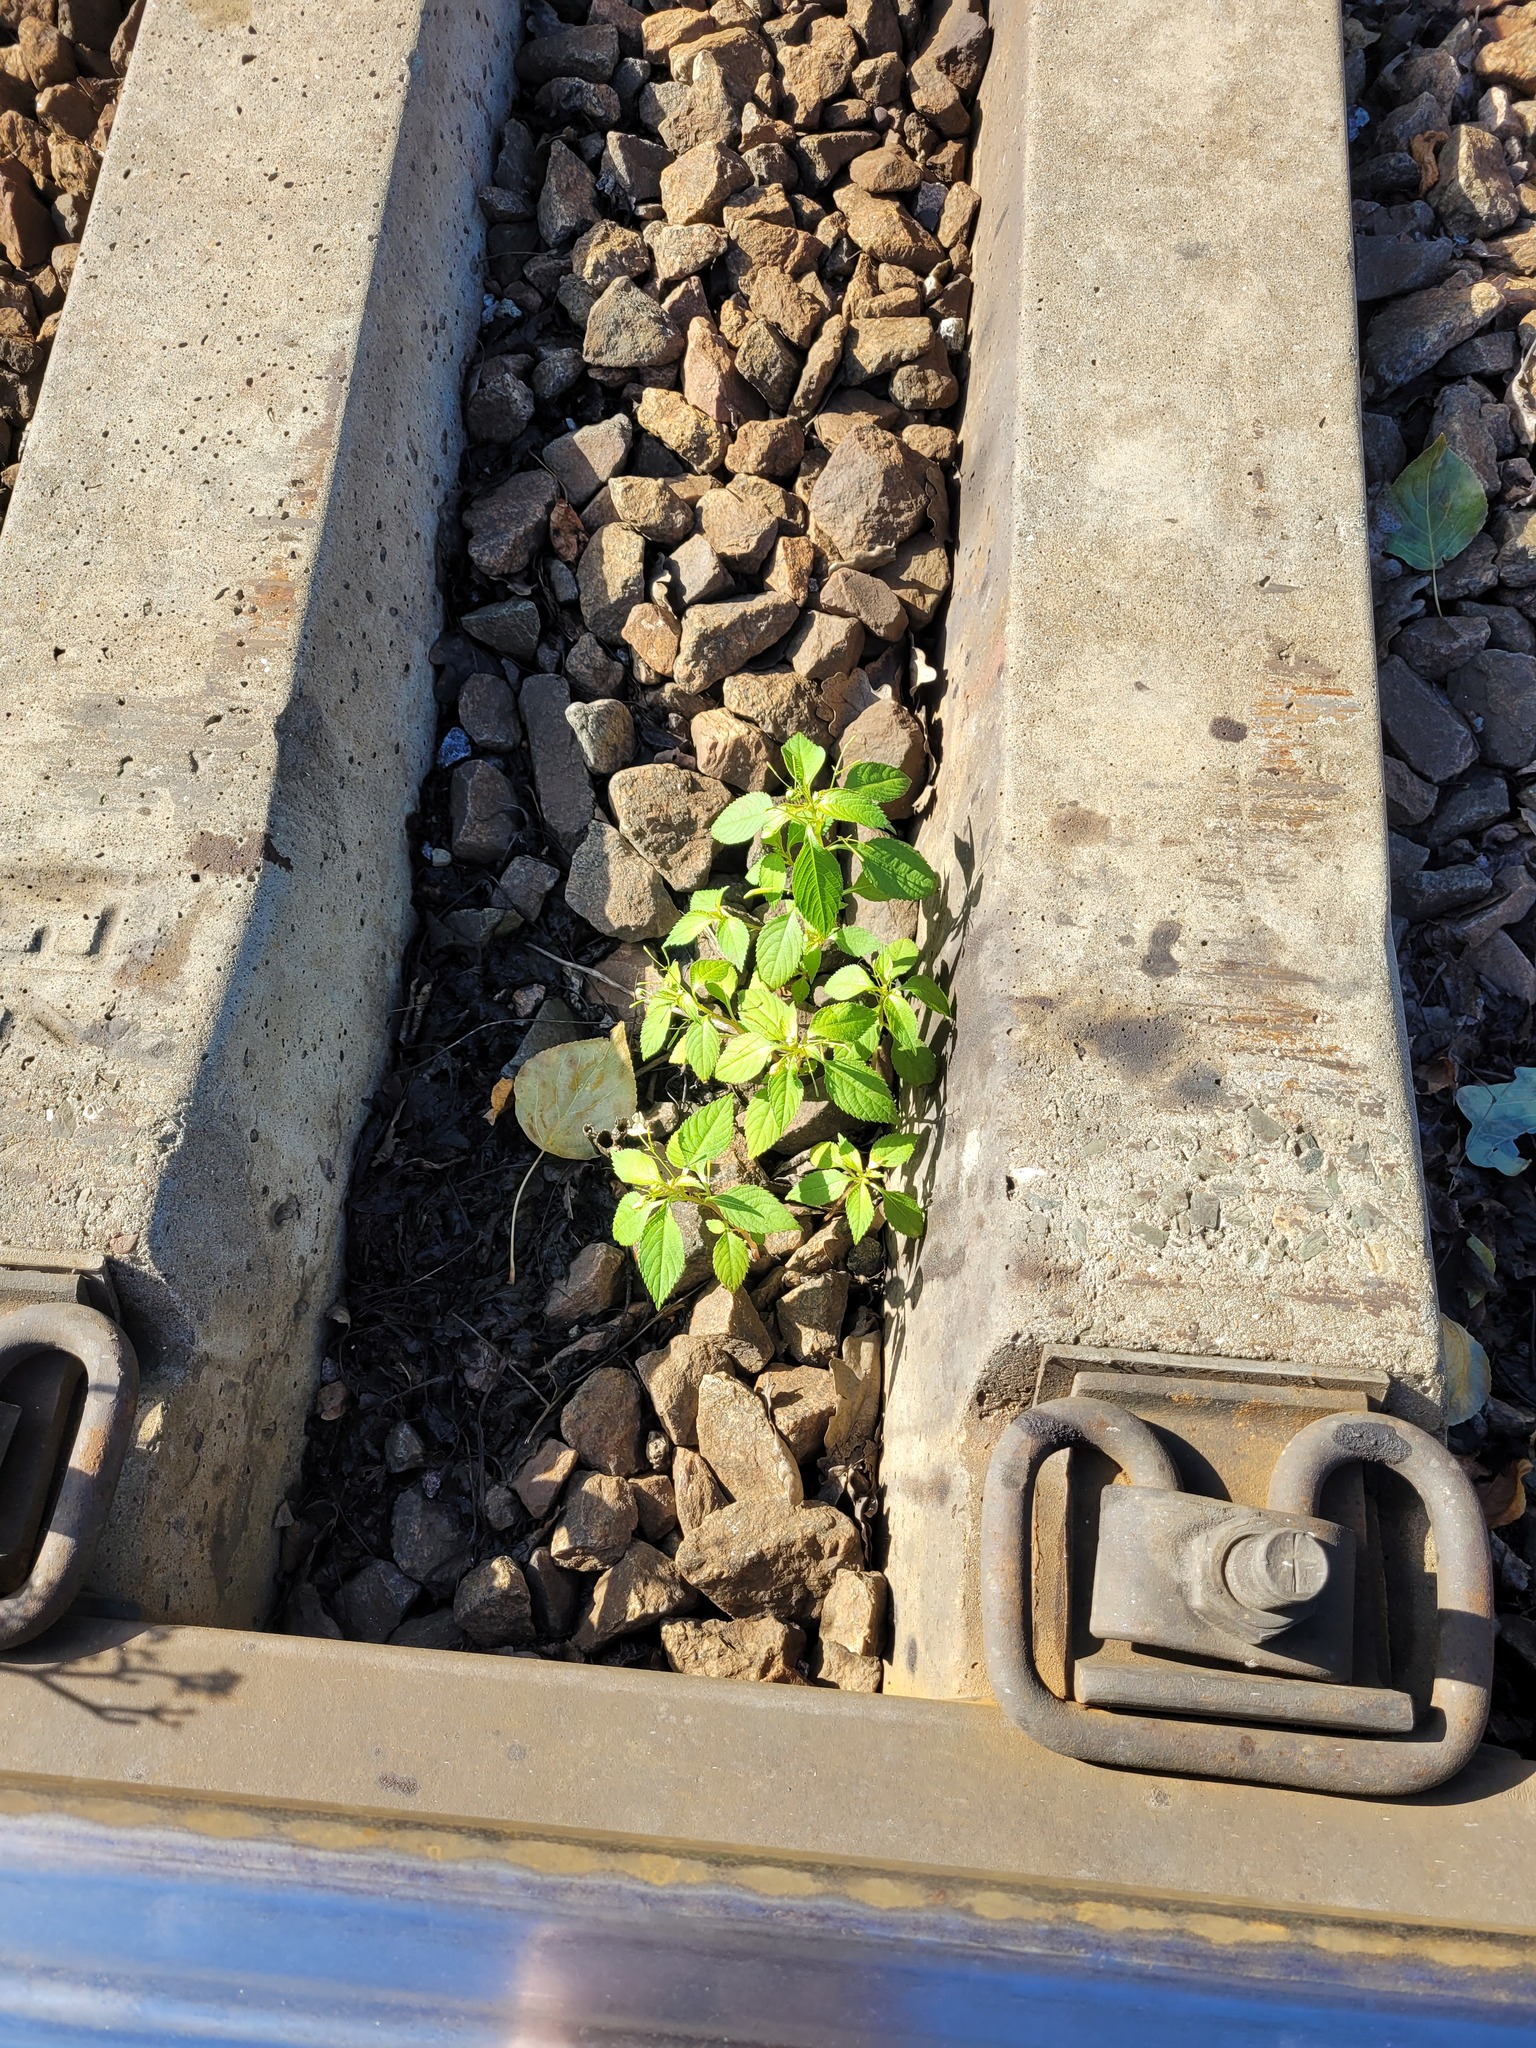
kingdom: Plantae
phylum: Tracheophyta
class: Magnoliopsida
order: Ericales
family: Balsaminaceae
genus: Impatiens
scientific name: Impatiens parviflora
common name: Small balsam
